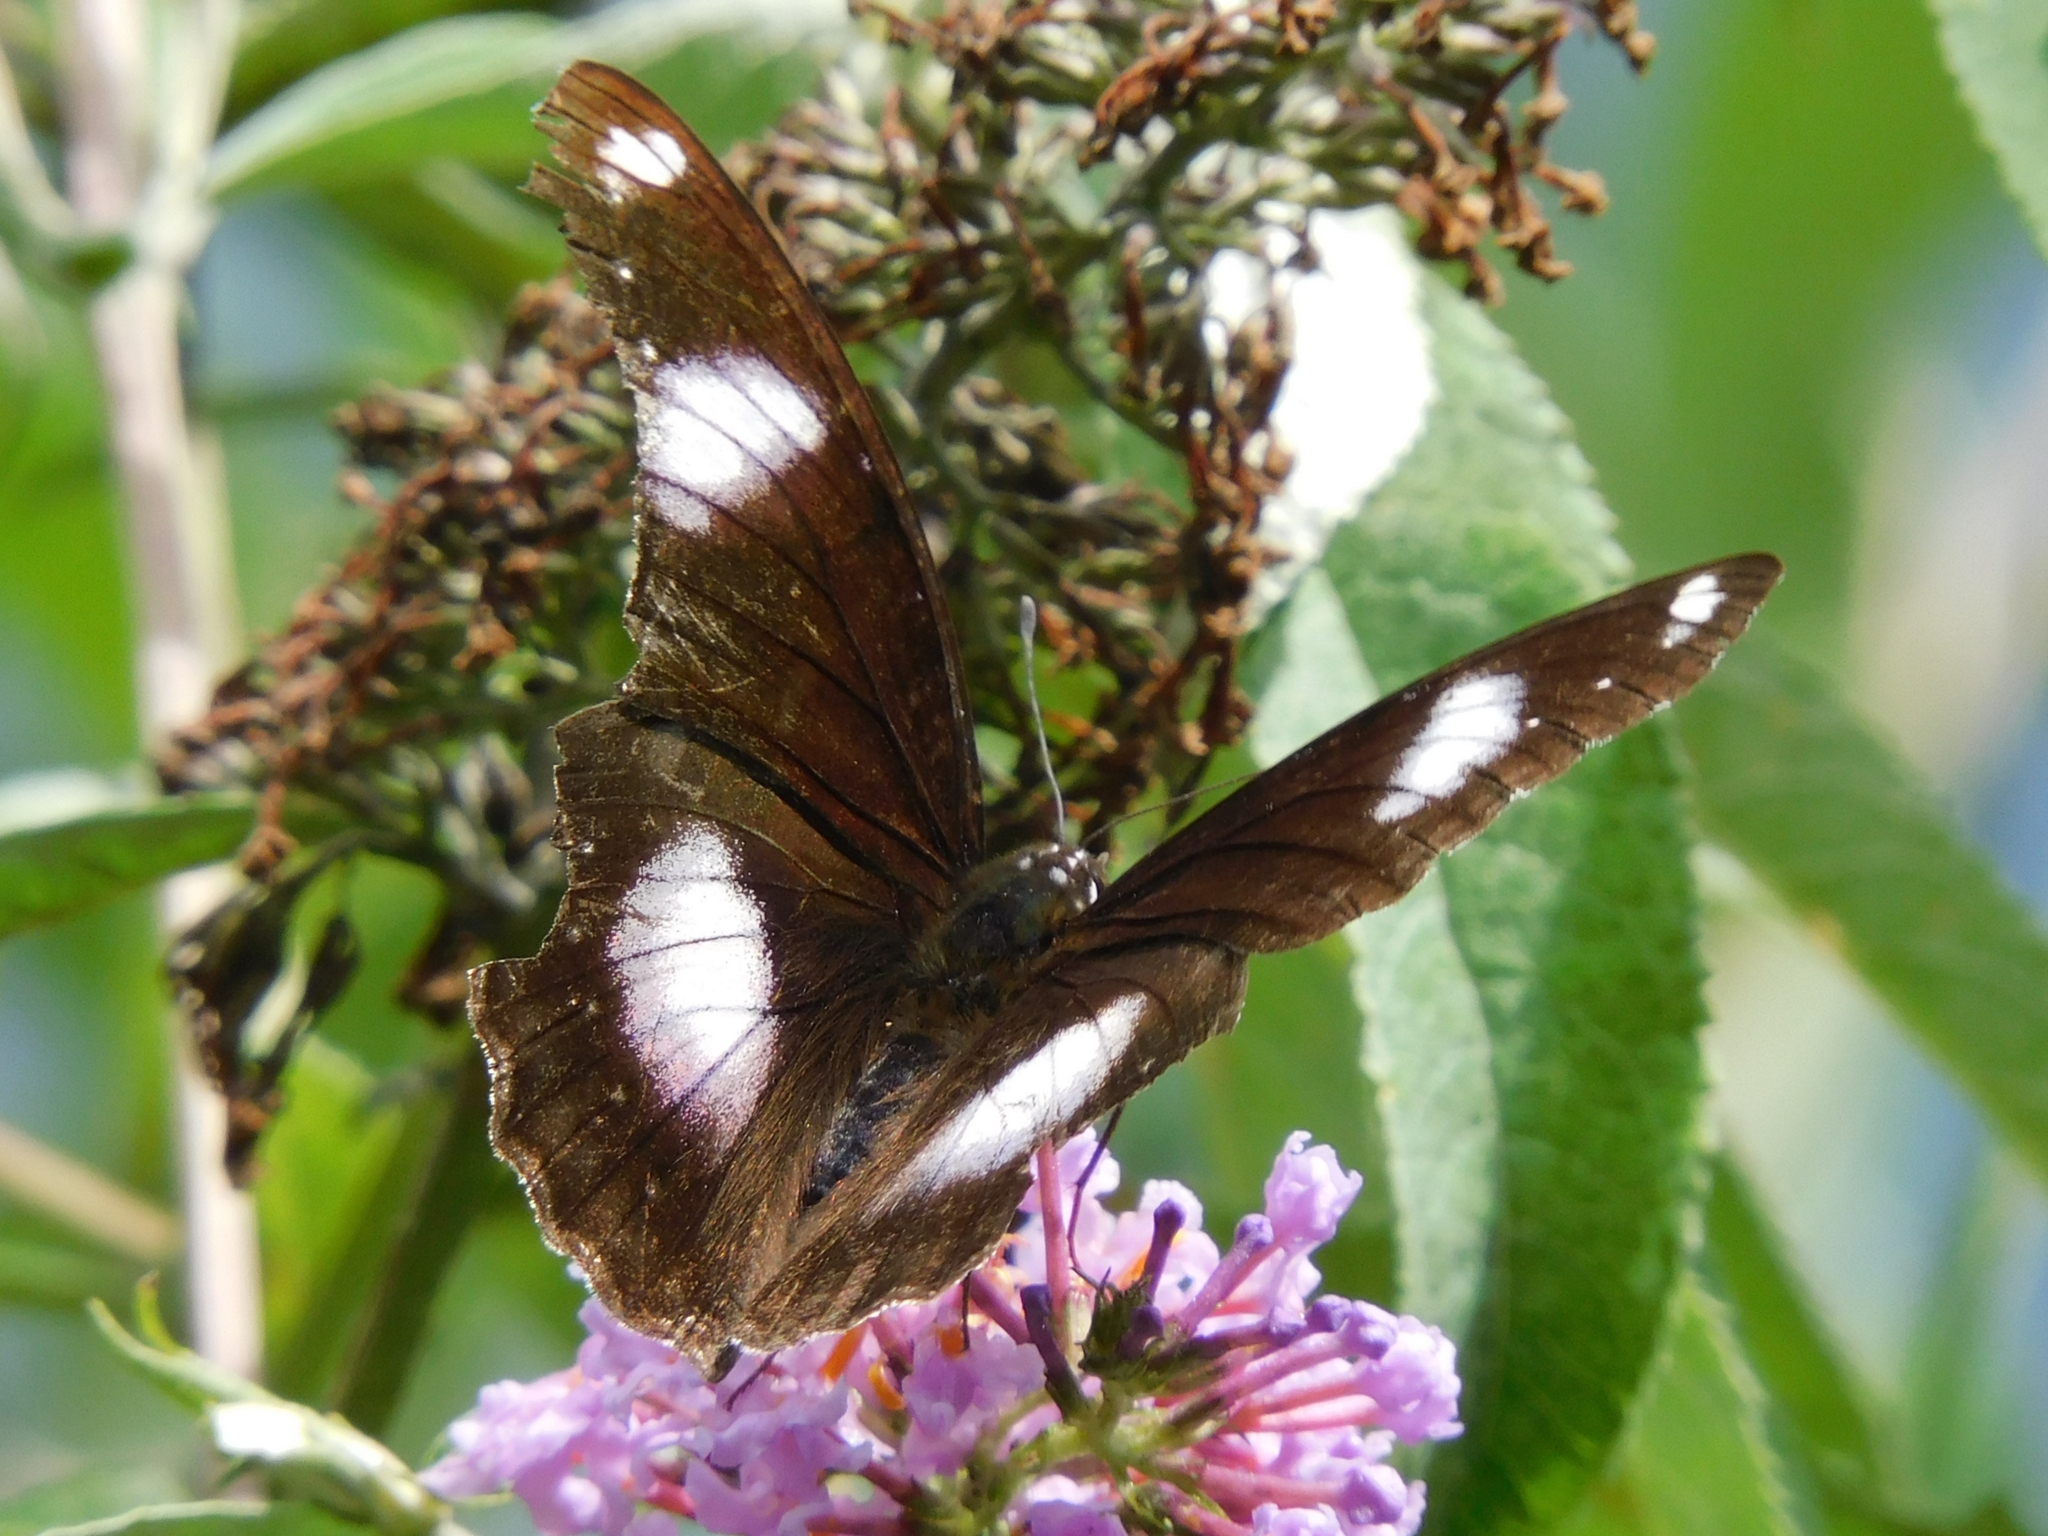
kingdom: Animalia
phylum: Arthropoda
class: Insecta
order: Lepidoptera
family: Nymphalidae
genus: Hypolimnas
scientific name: Hypolimnas bolina
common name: Great eggfly
